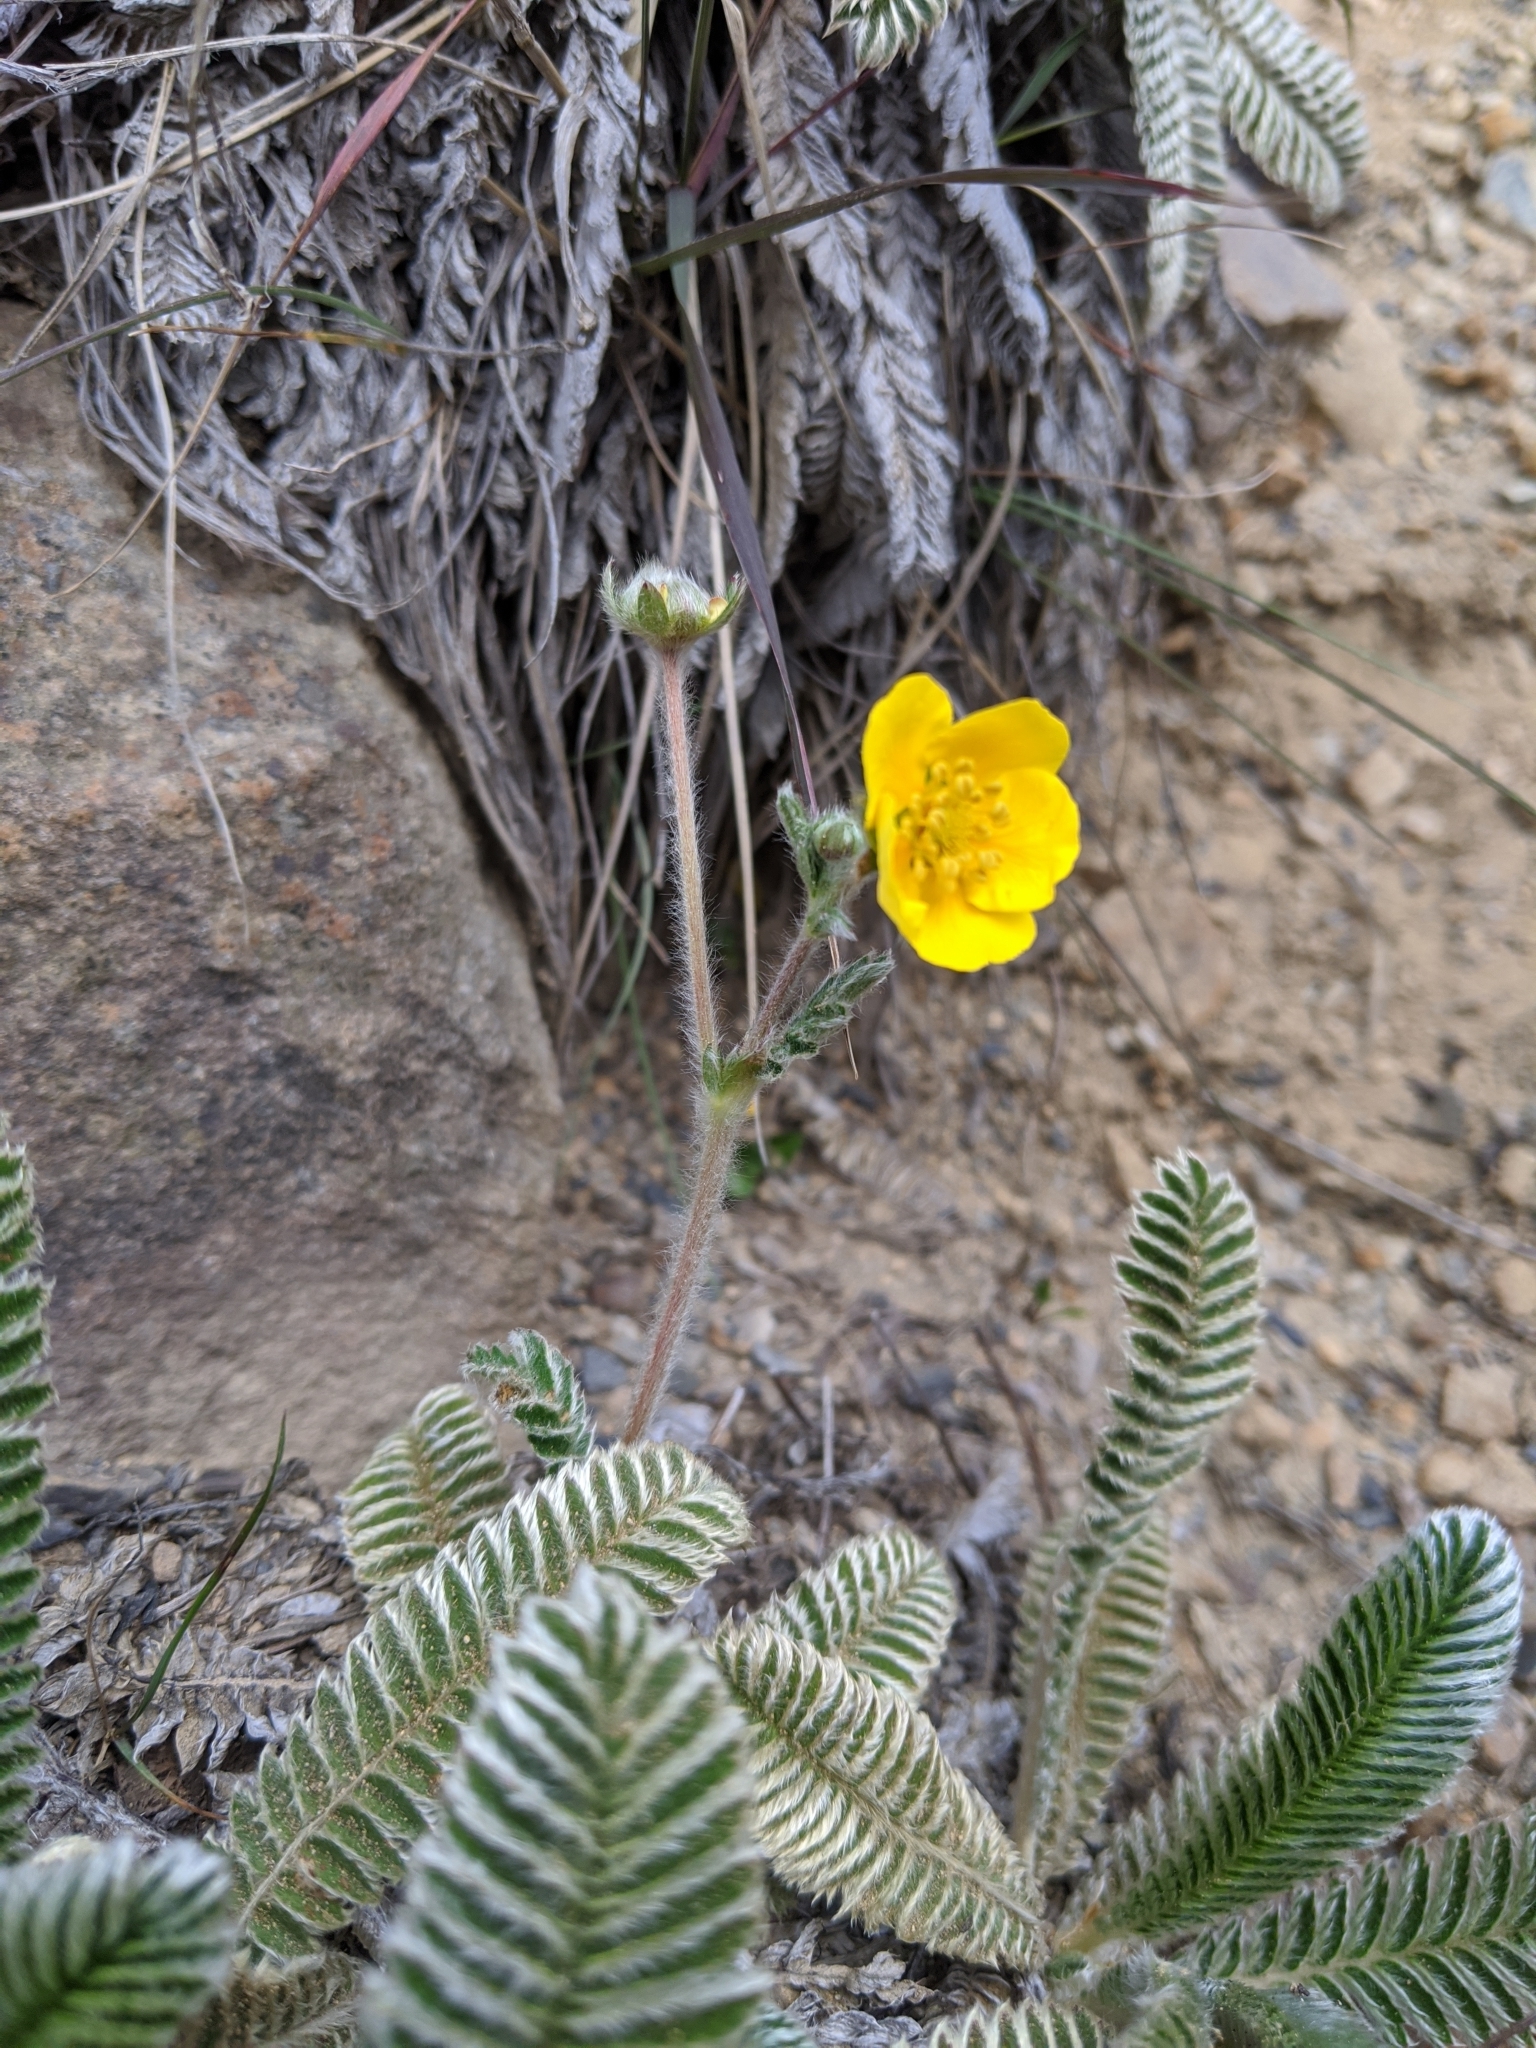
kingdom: Plantae
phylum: Tracheophyta
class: Magnoliopsida
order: Rosales
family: Rosaceae
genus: Argentina
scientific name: Argentina tugitakensis
